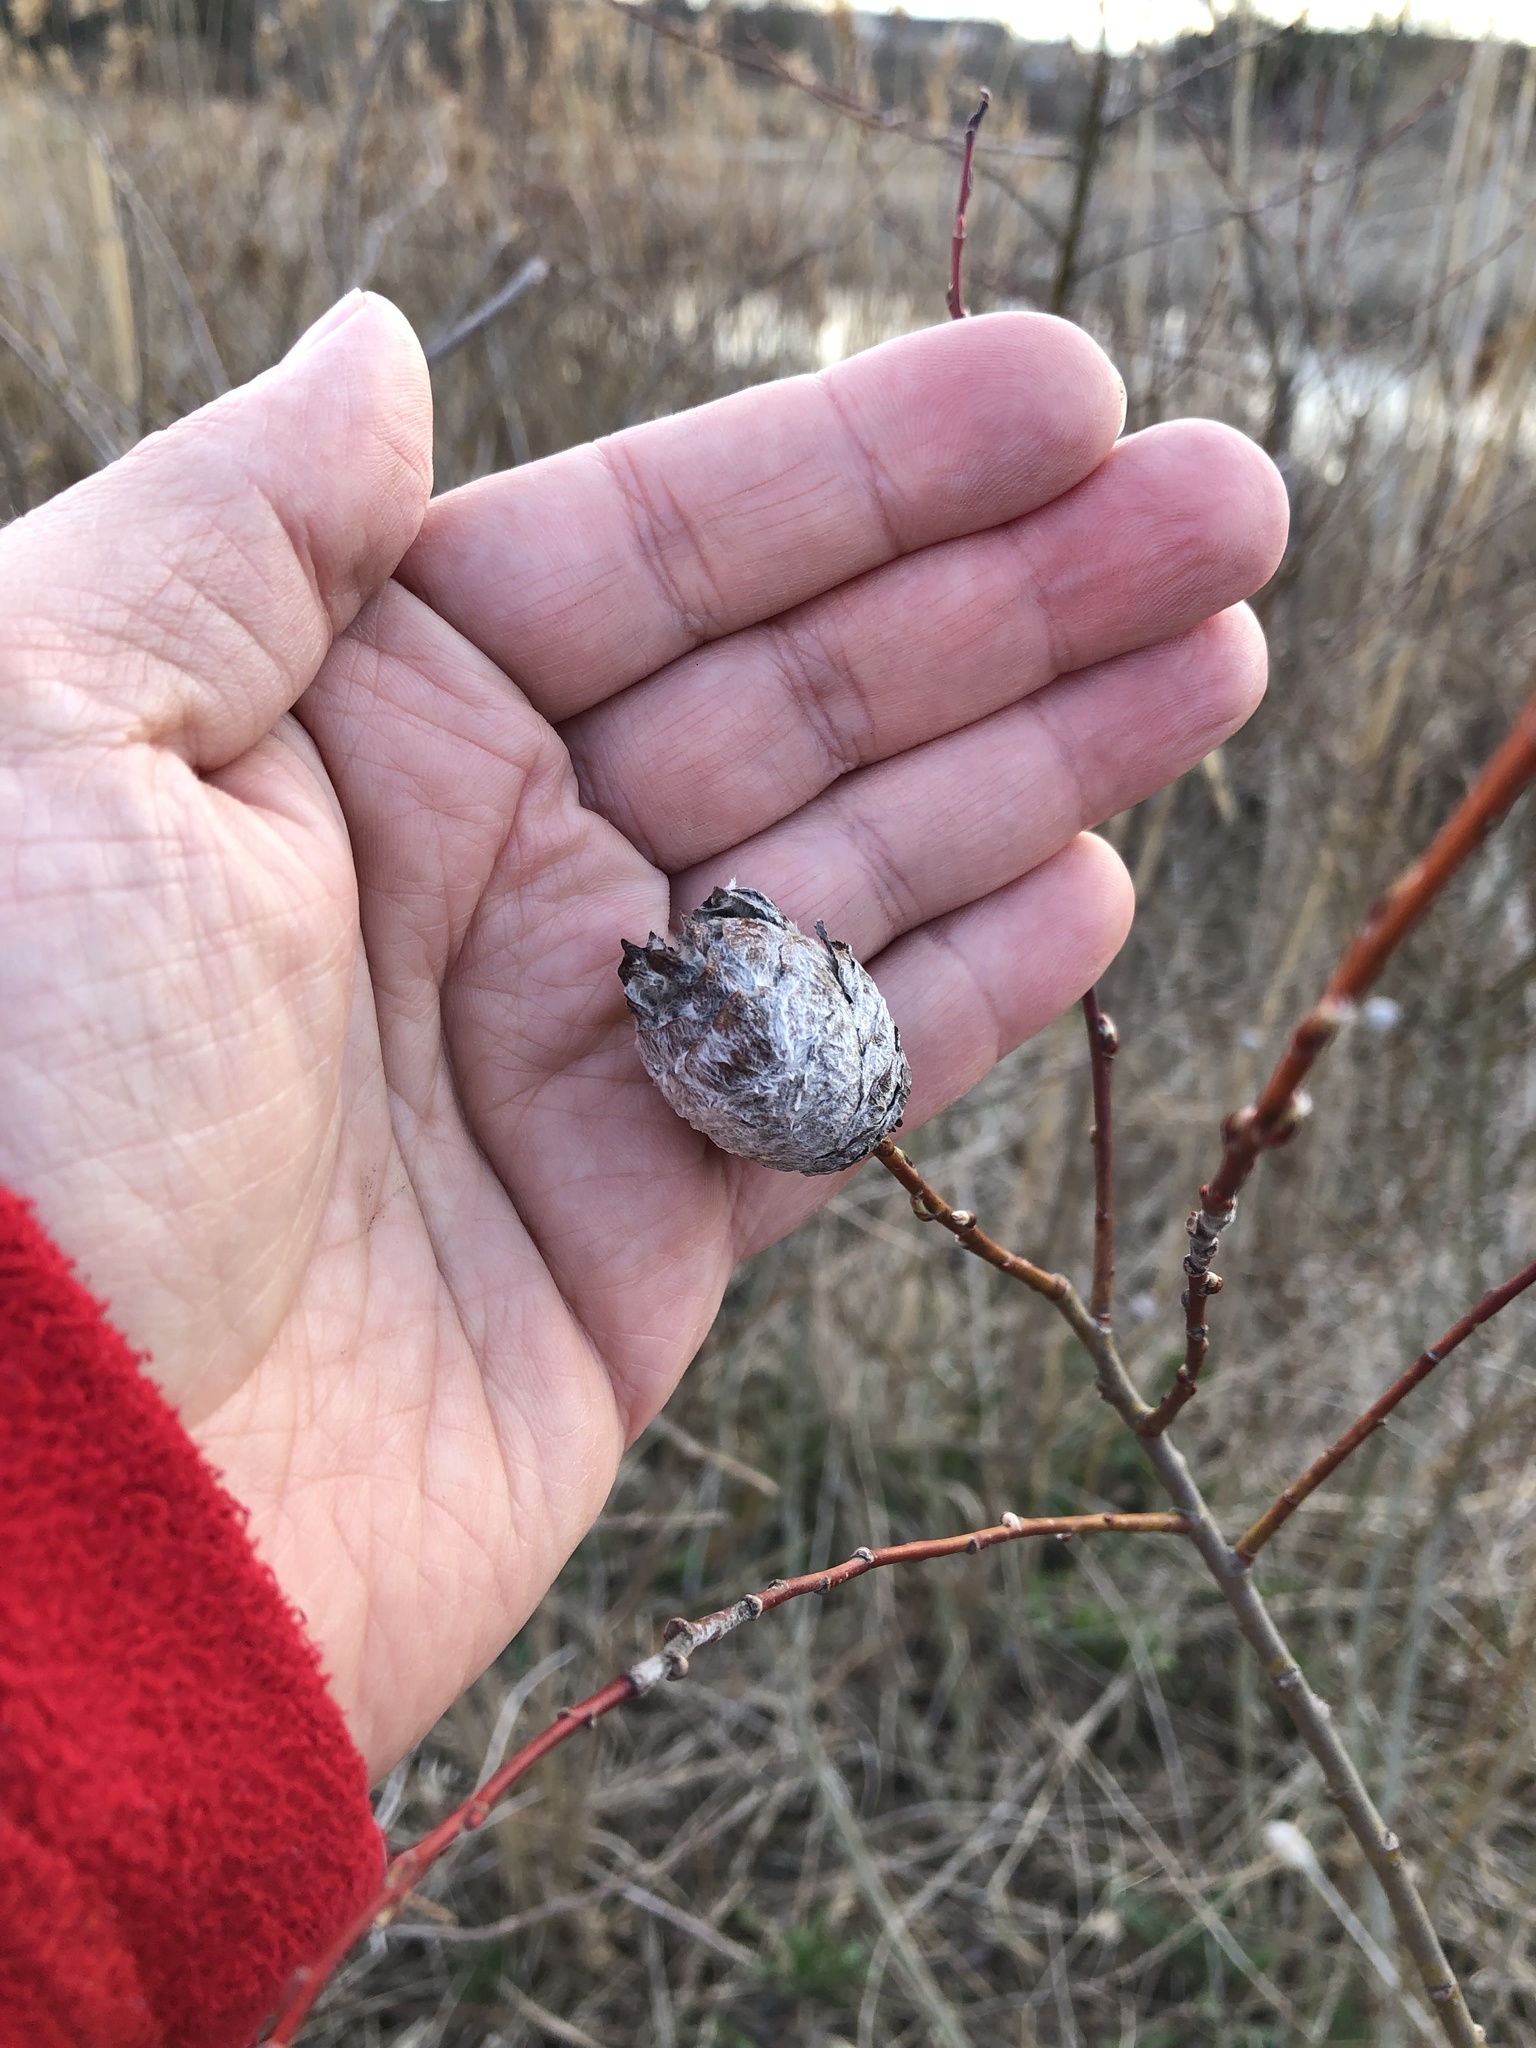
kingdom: Animalia
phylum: Arthropoda
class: Insecta
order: Diptera
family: Cecidomyiidae
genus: Rabdophaga
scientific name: Rabdophaga strobiloides
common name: Willow pinecone gall midge
